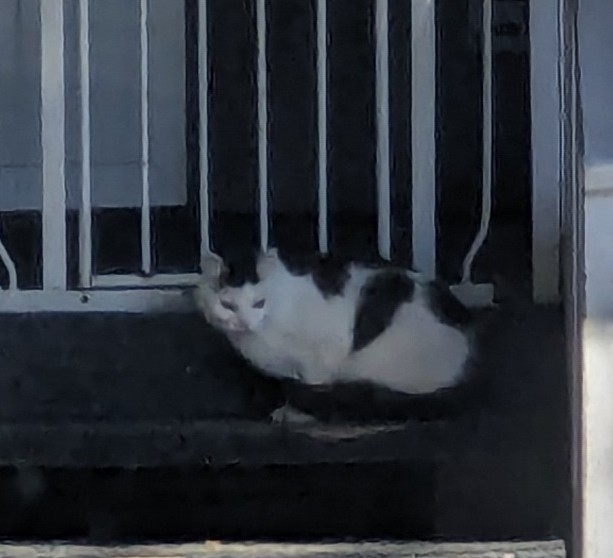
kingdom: Animalia
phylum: Chordata
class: Mammalia
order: Carnivora
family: Felidae
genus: Felis
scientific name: Felis catus
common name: Domestic cat
